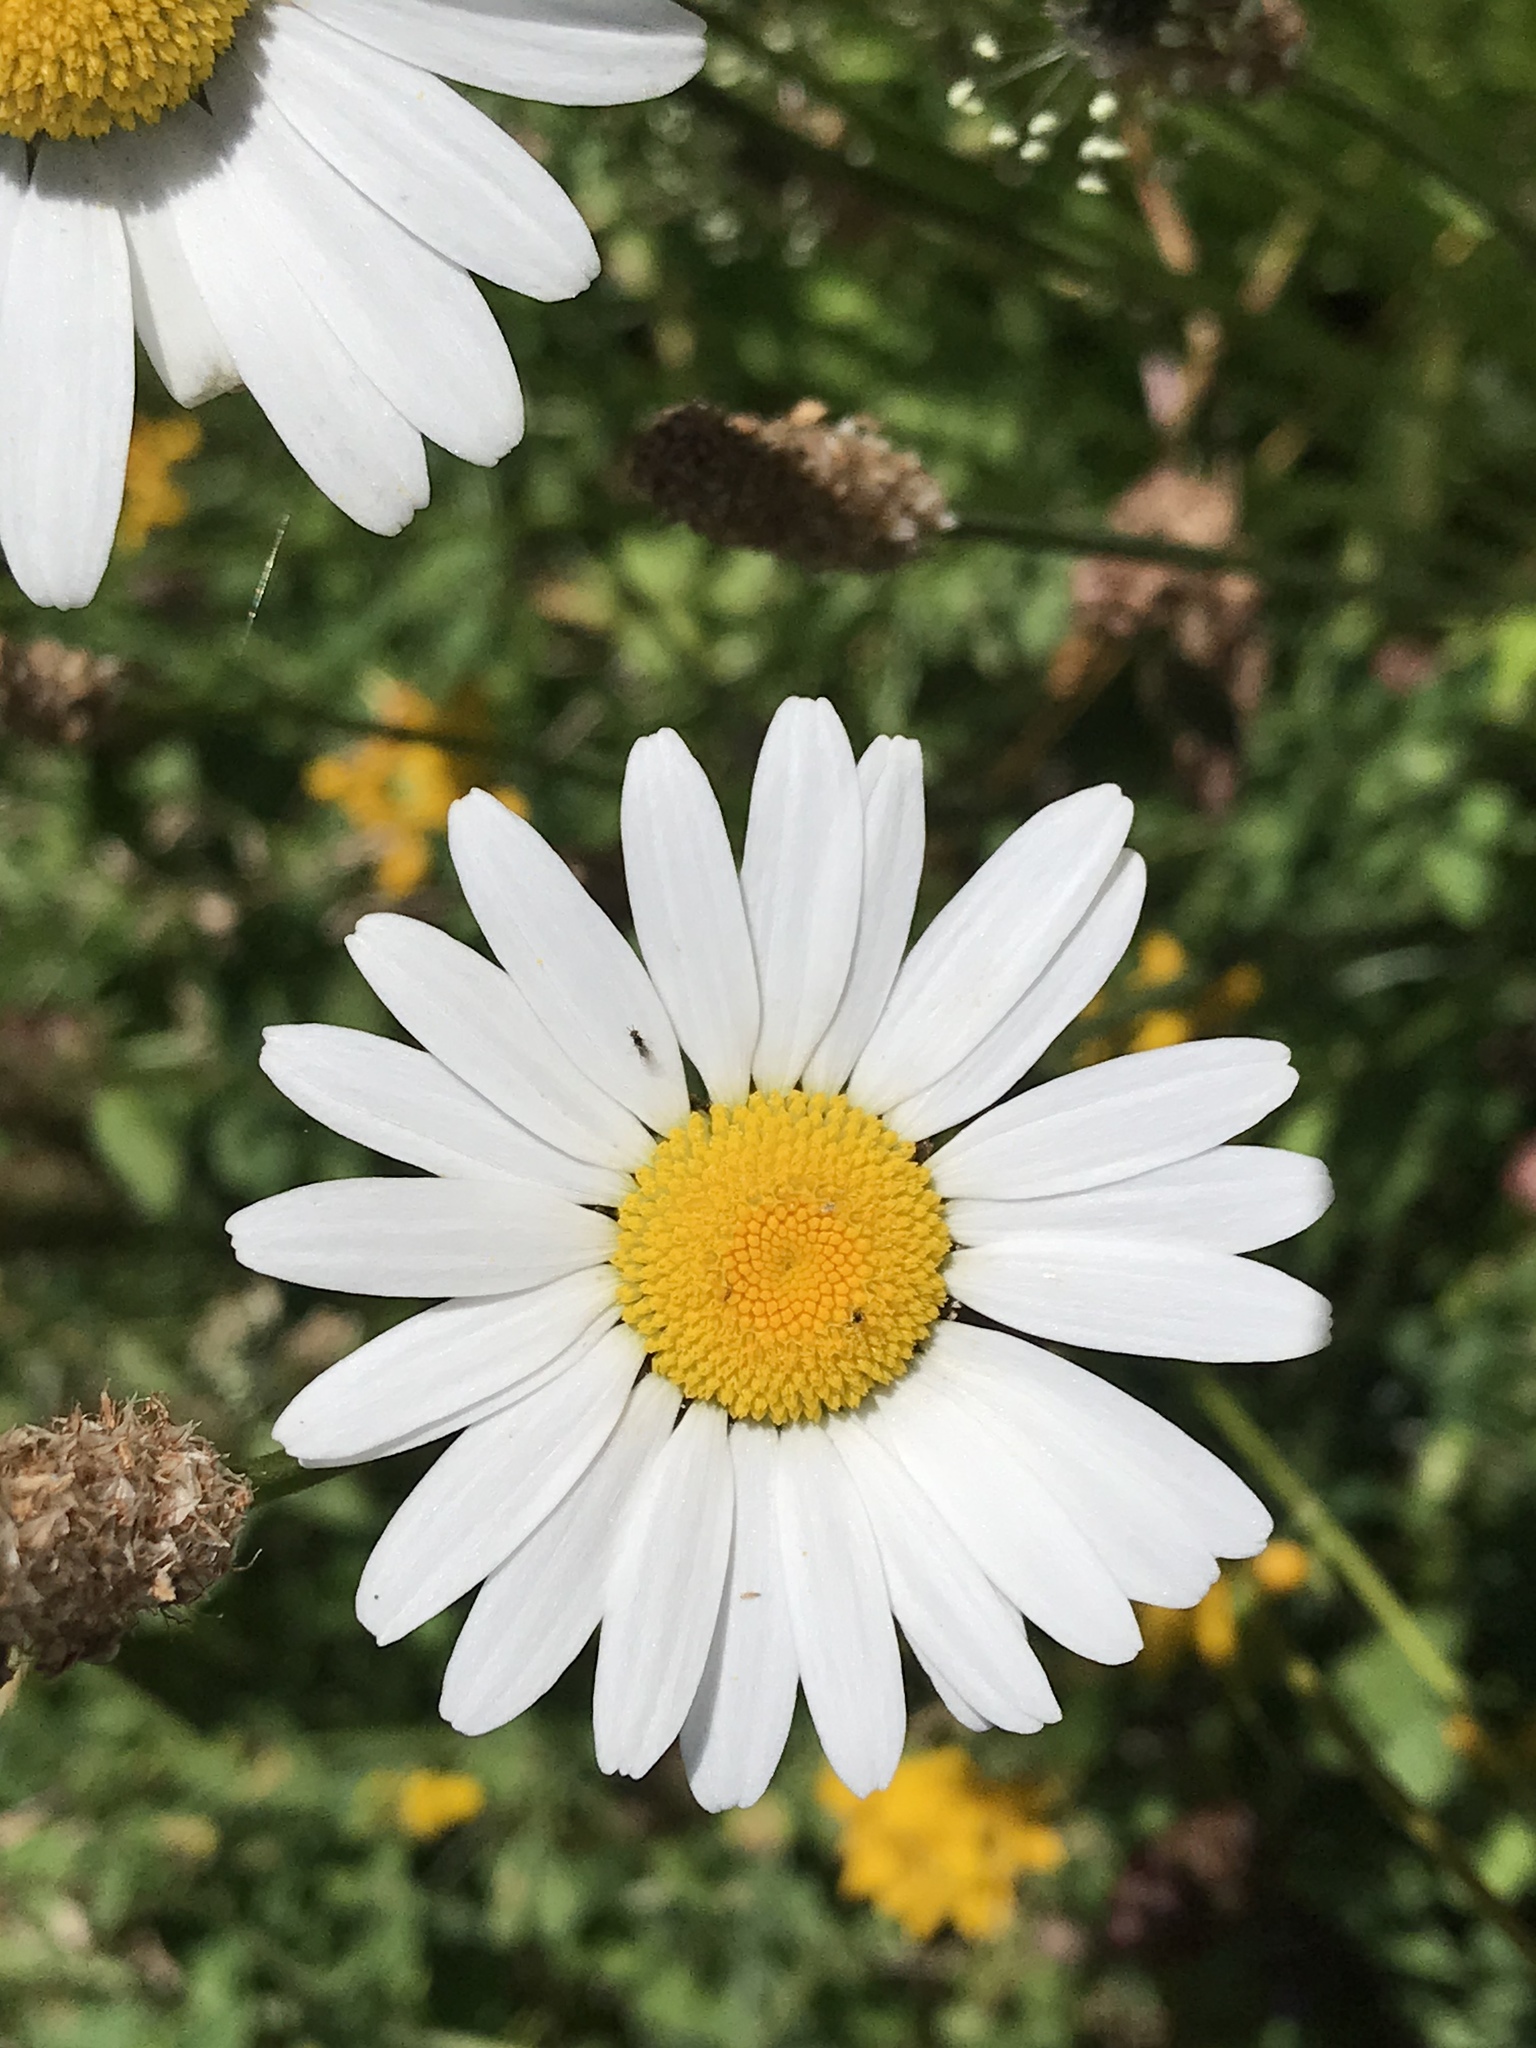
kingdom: Plantae
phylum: Tracheophyta
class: Magnoliopsida
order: Asterales
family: Asteraceae
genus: Leucanthemum
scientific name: Leucanthemum vulgare
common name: Oxeye daisy
